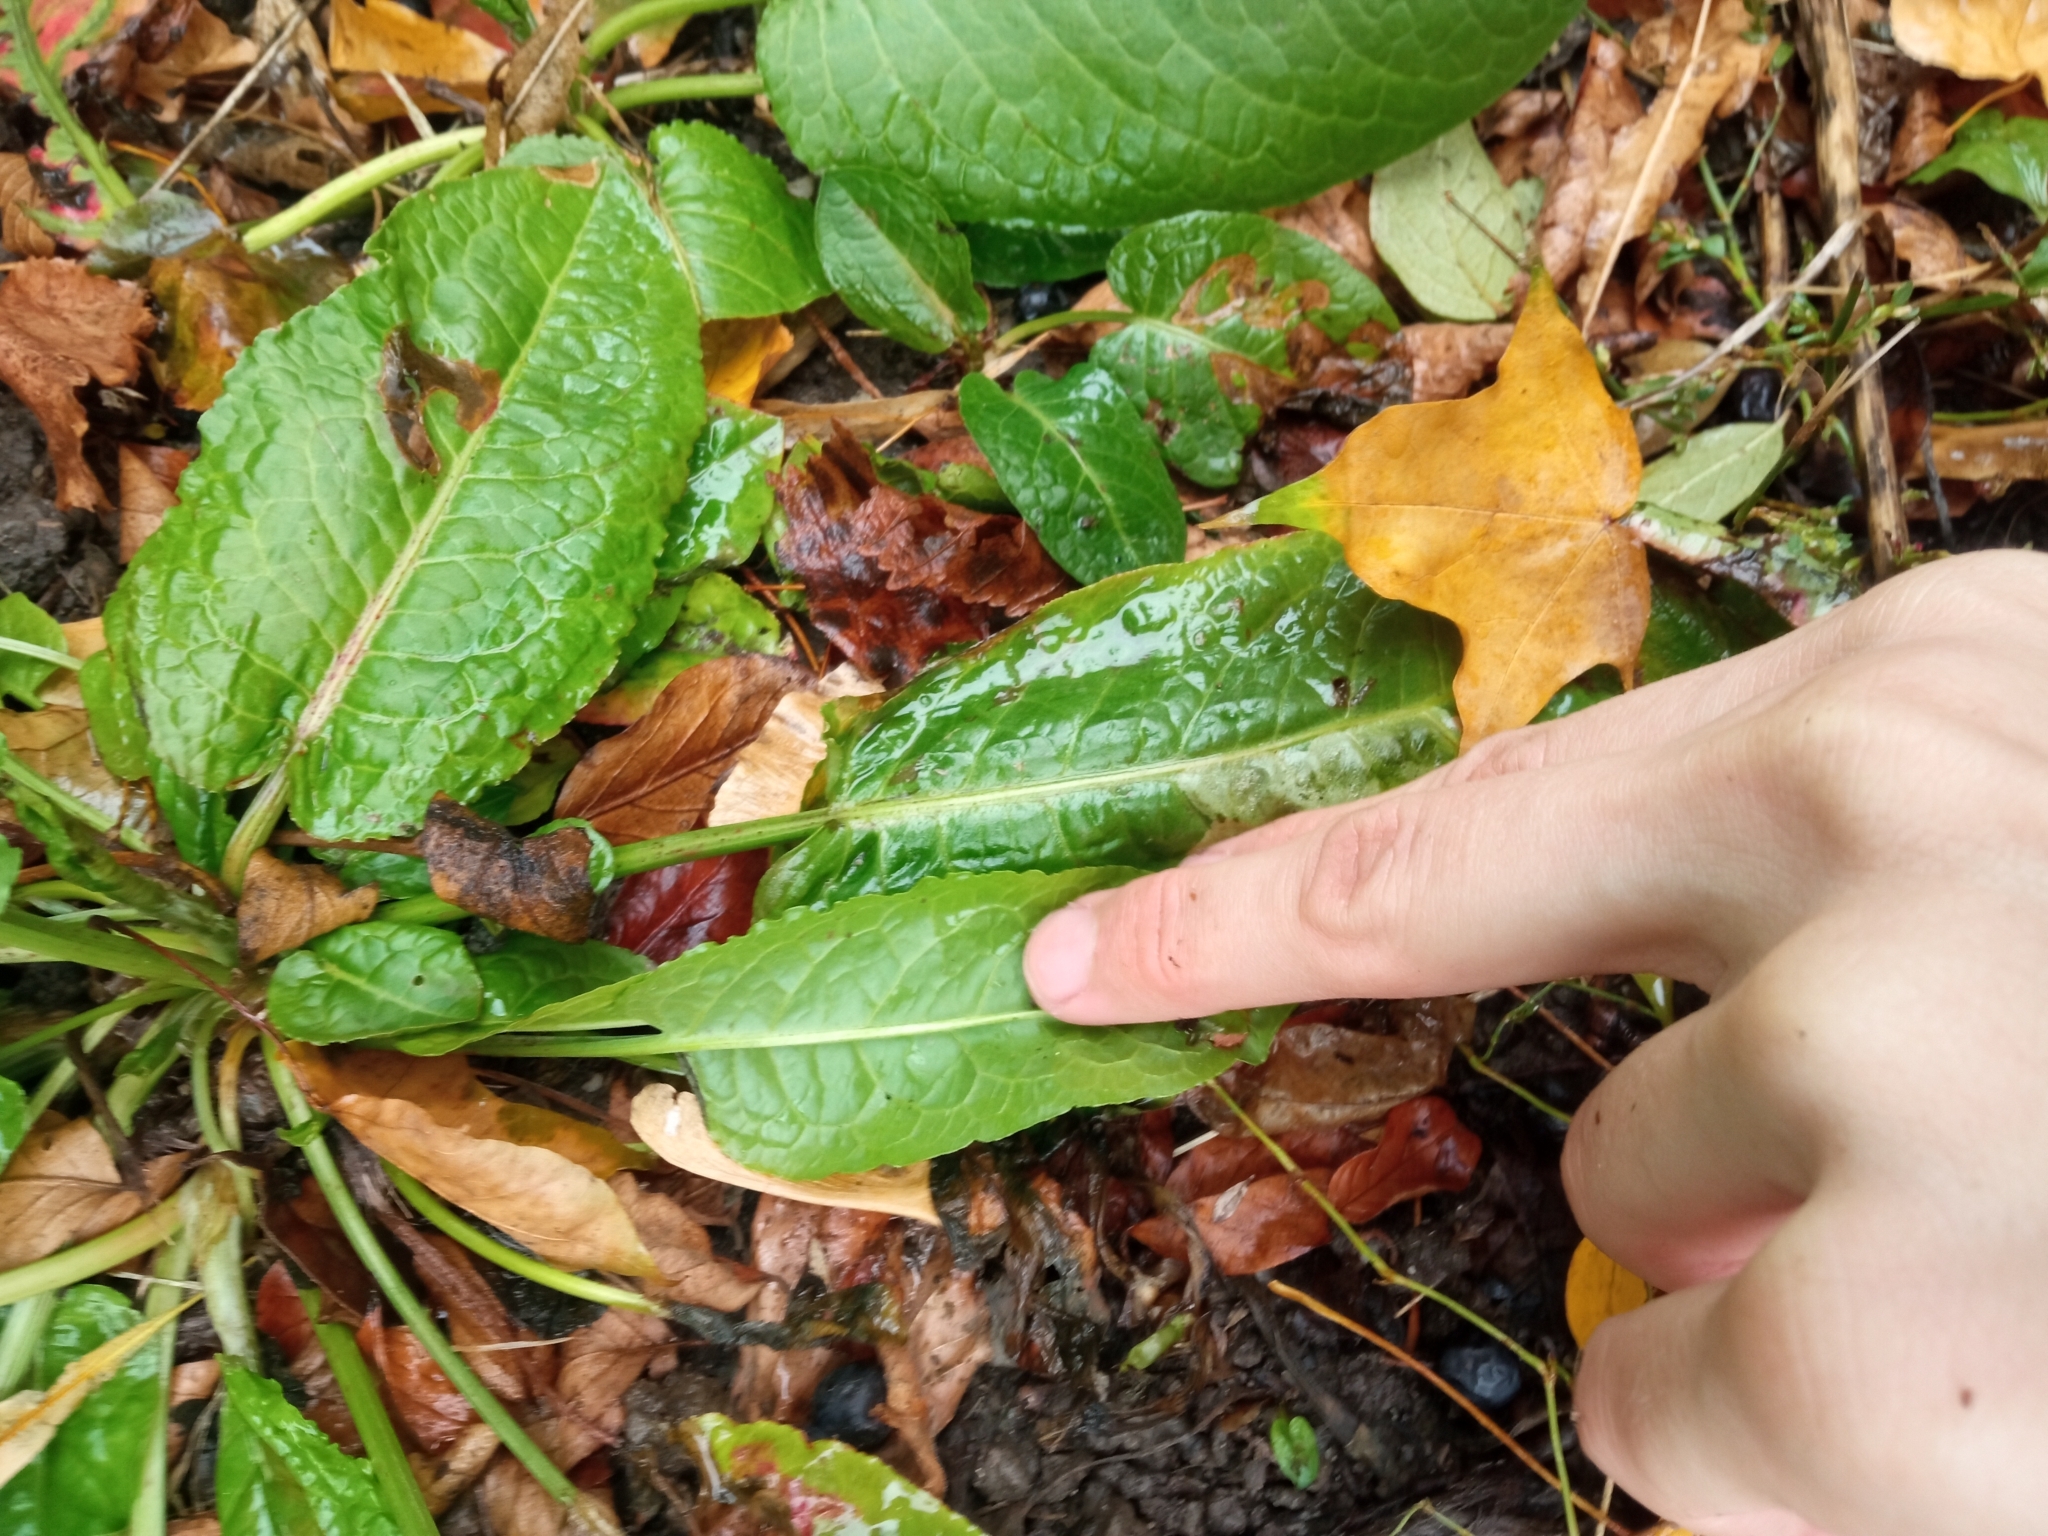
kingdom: Plantae
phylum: Tracheophyta
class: Magnoliopsida
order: Caryophyllales
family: Polygonaceae
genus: Rumex
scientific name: Rumex obtusifolius
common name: Bitter dock
